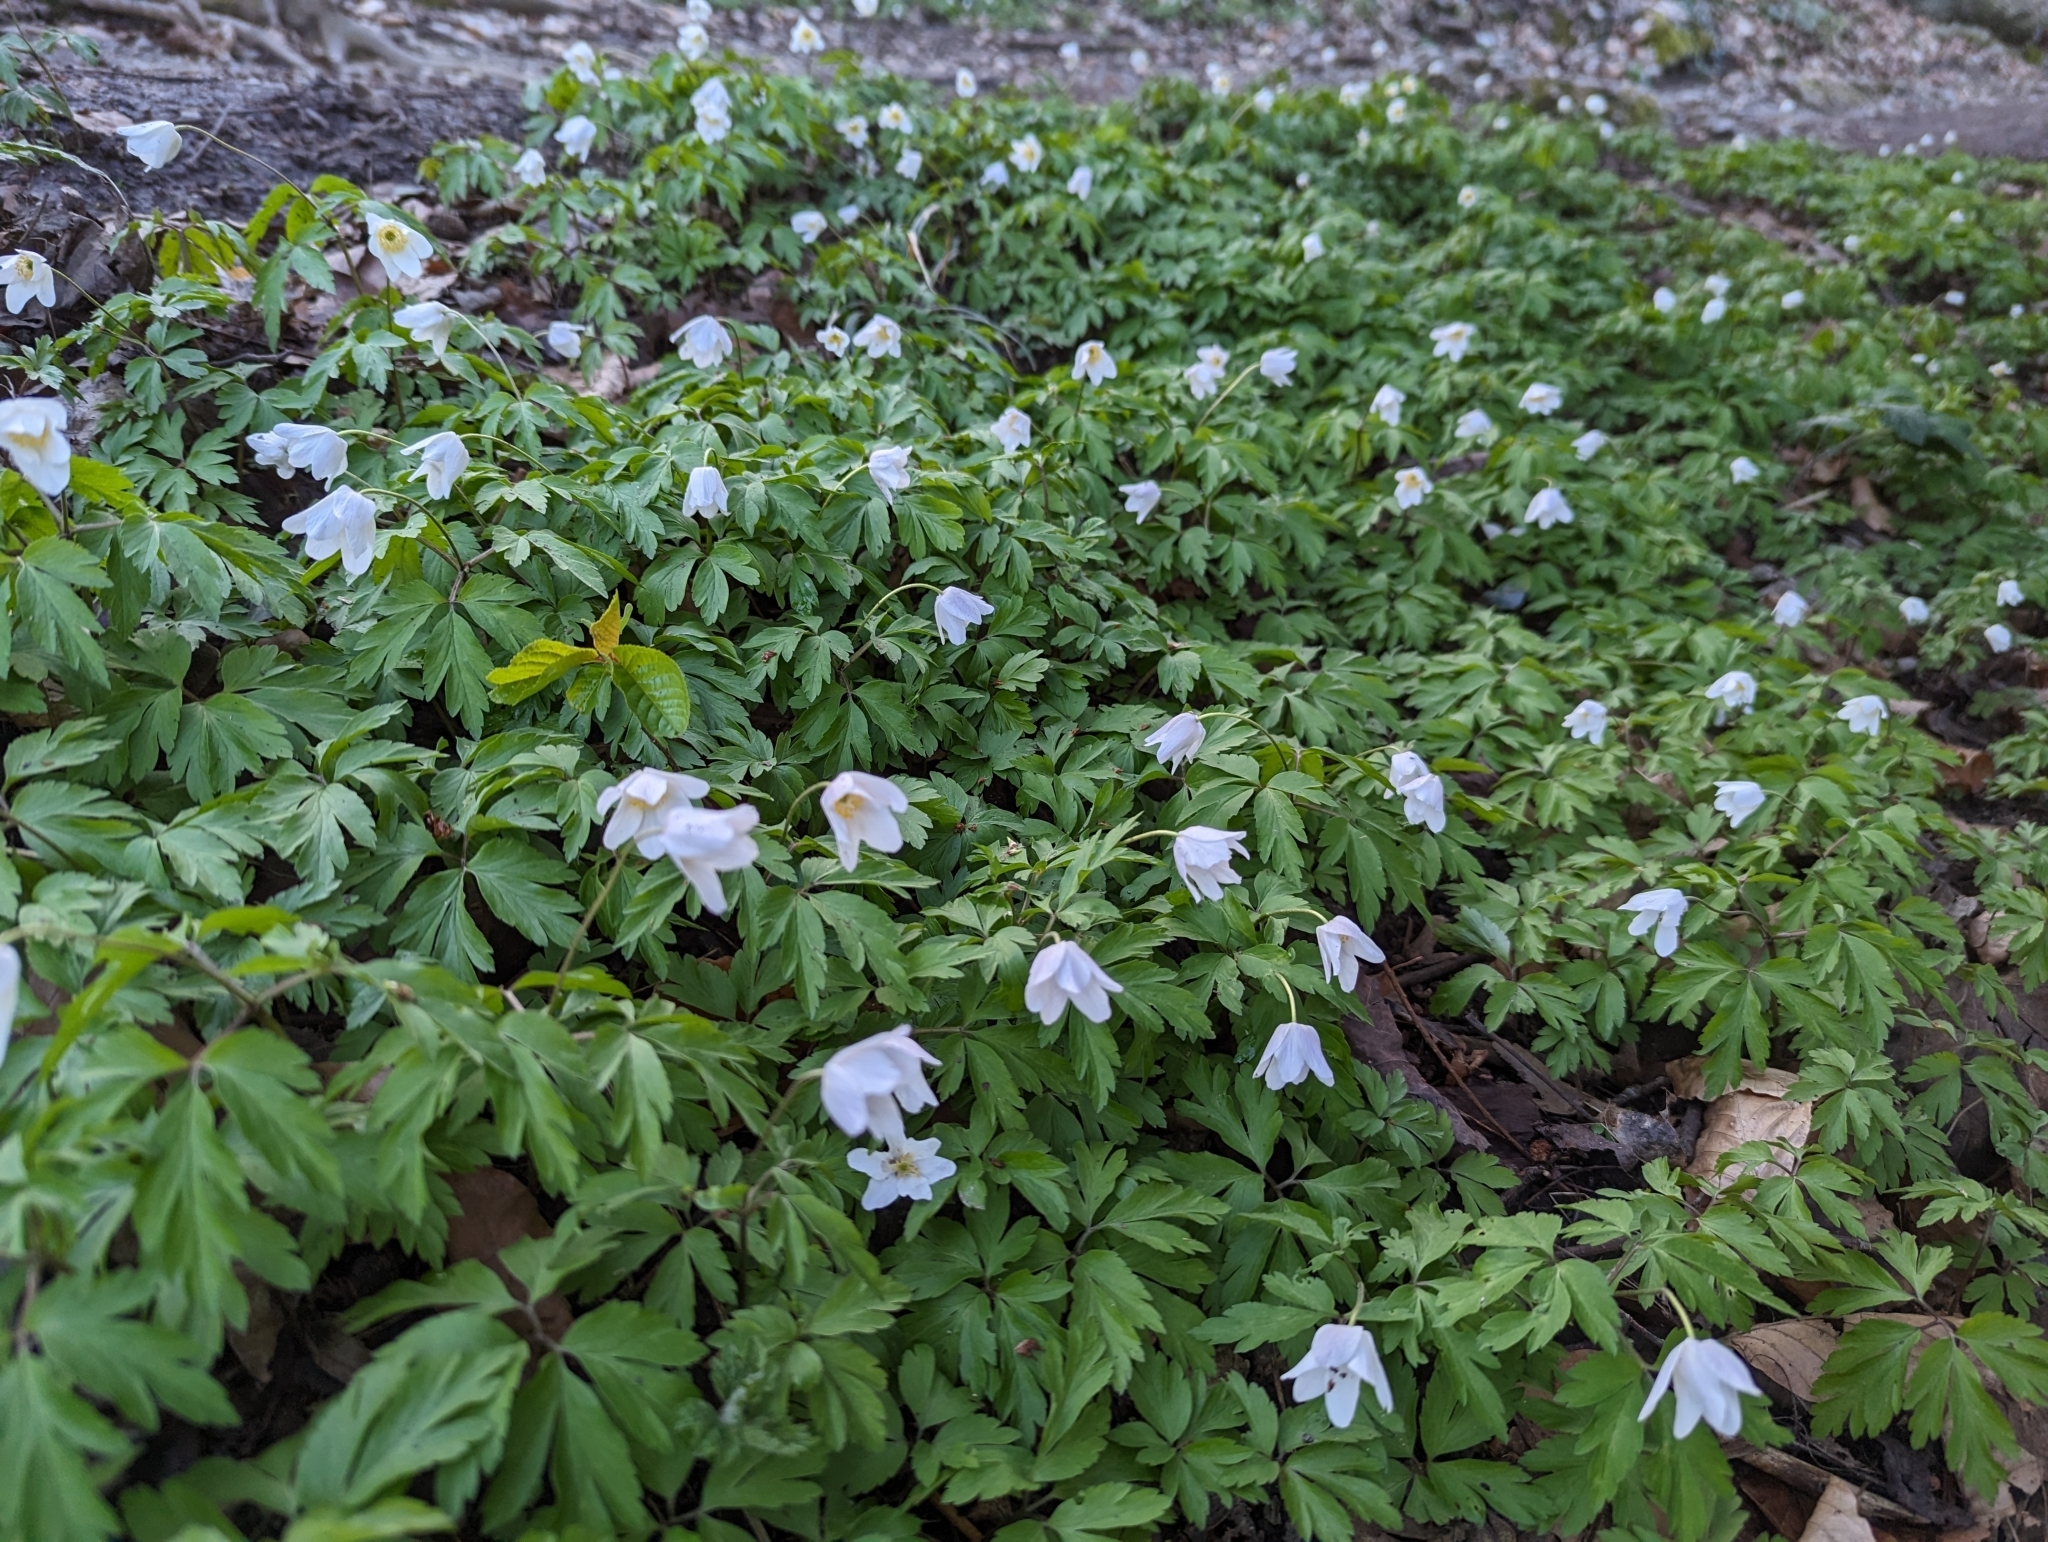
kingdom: Plantae
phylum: Tracheophyta
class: Magnoliopsida
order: Ranunculales
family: Ranunculaceae
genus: Anemone
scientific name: Anemone nemorosa
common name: Wood anemone
